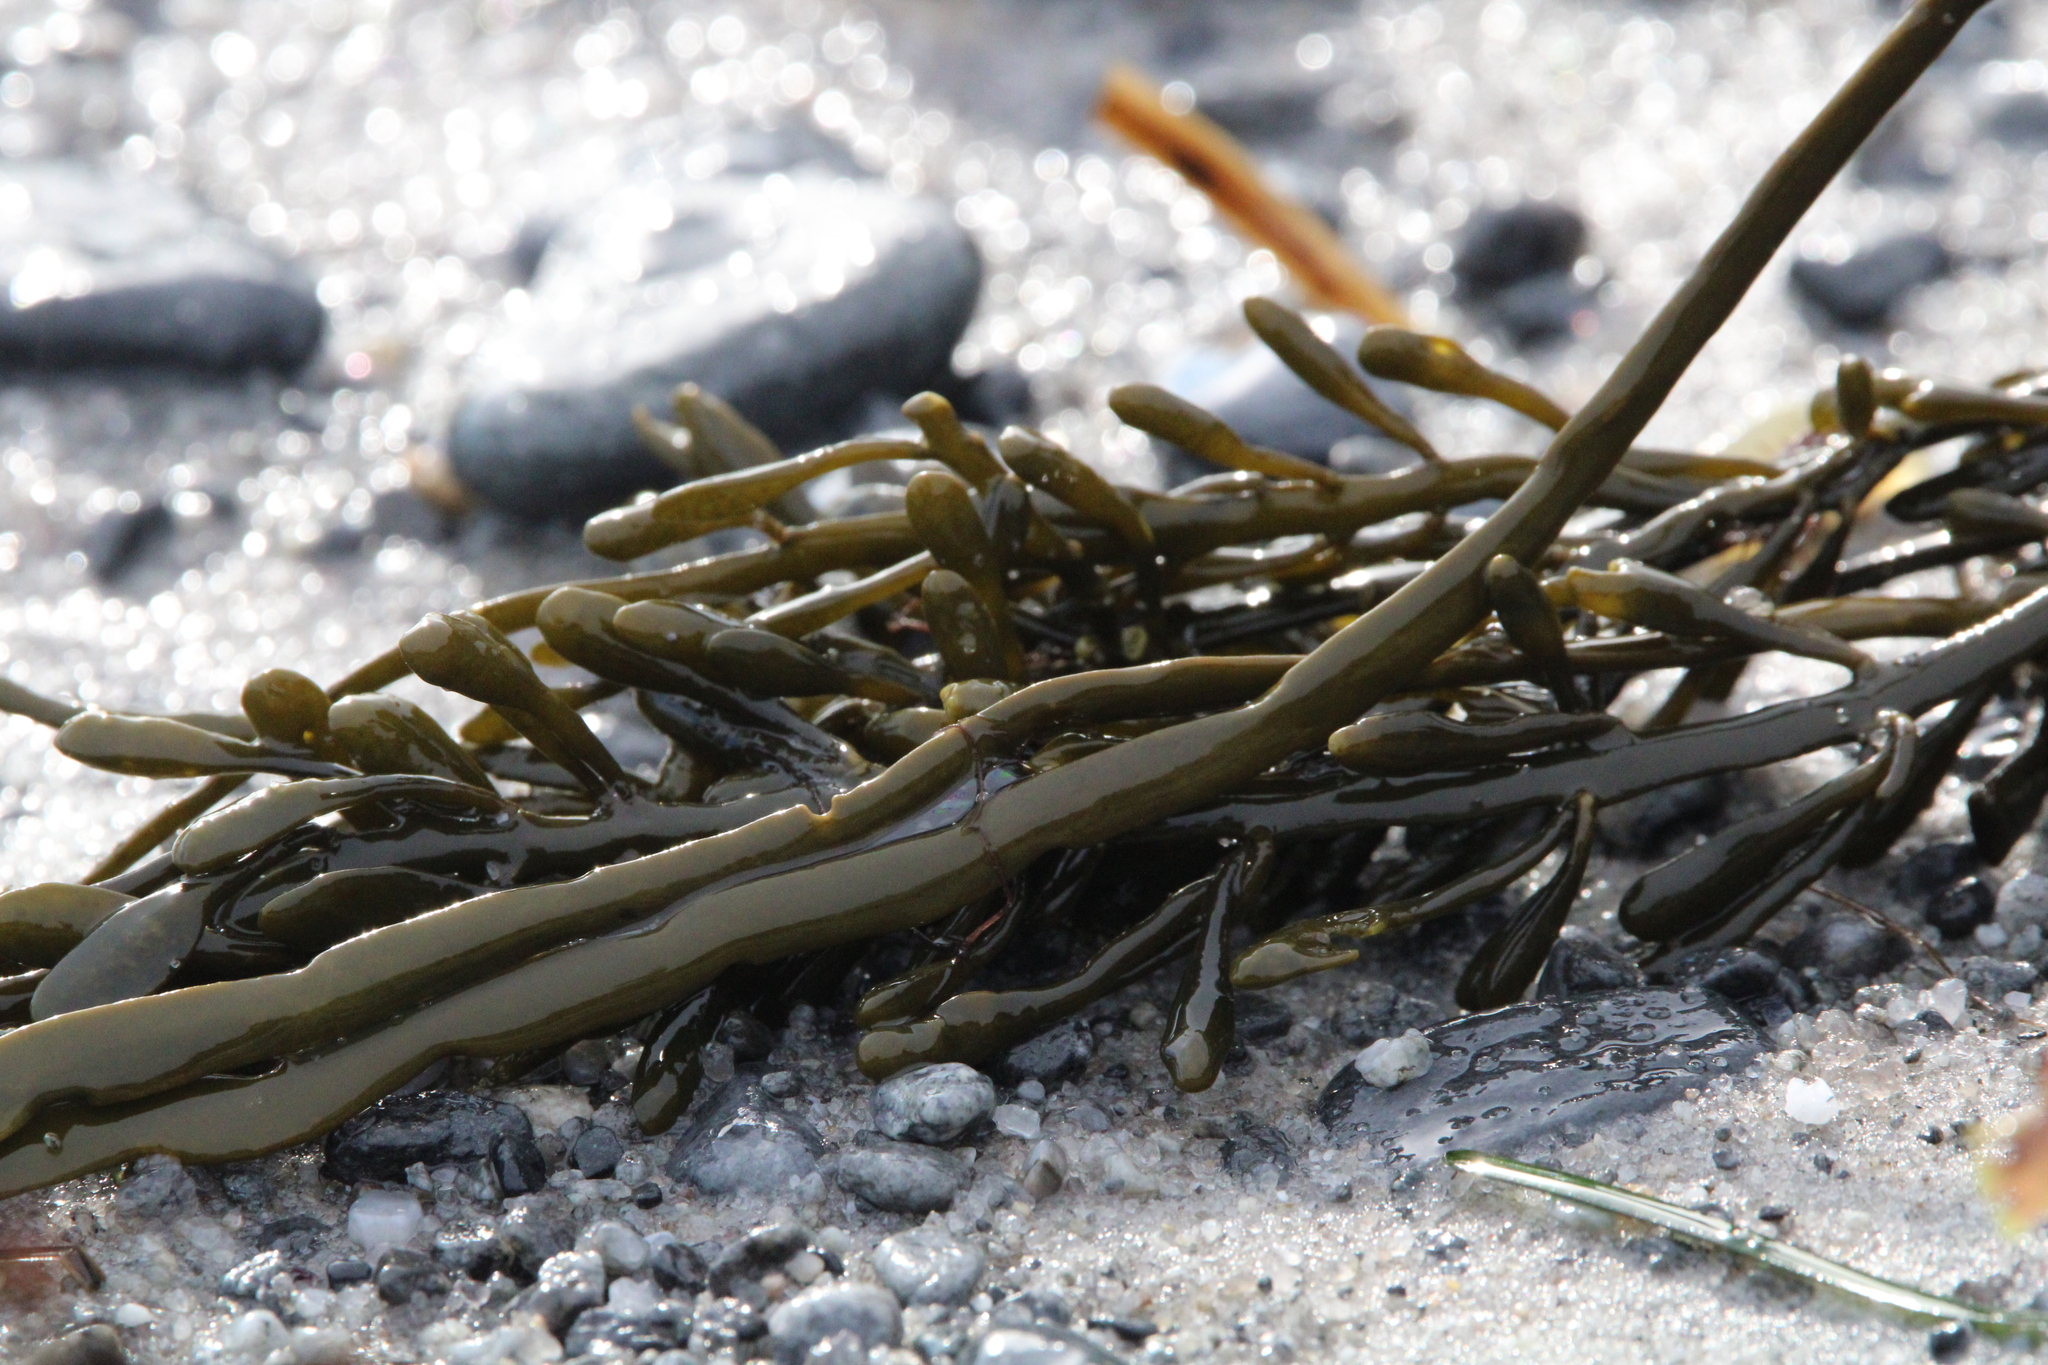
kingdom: Chromista
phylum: Ochrophyta
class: Phaeophyceae
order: Fucales
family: Fucaceae
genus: Ascophyllum
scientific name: Ascophyllum nodosum
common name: Knotted wrack
